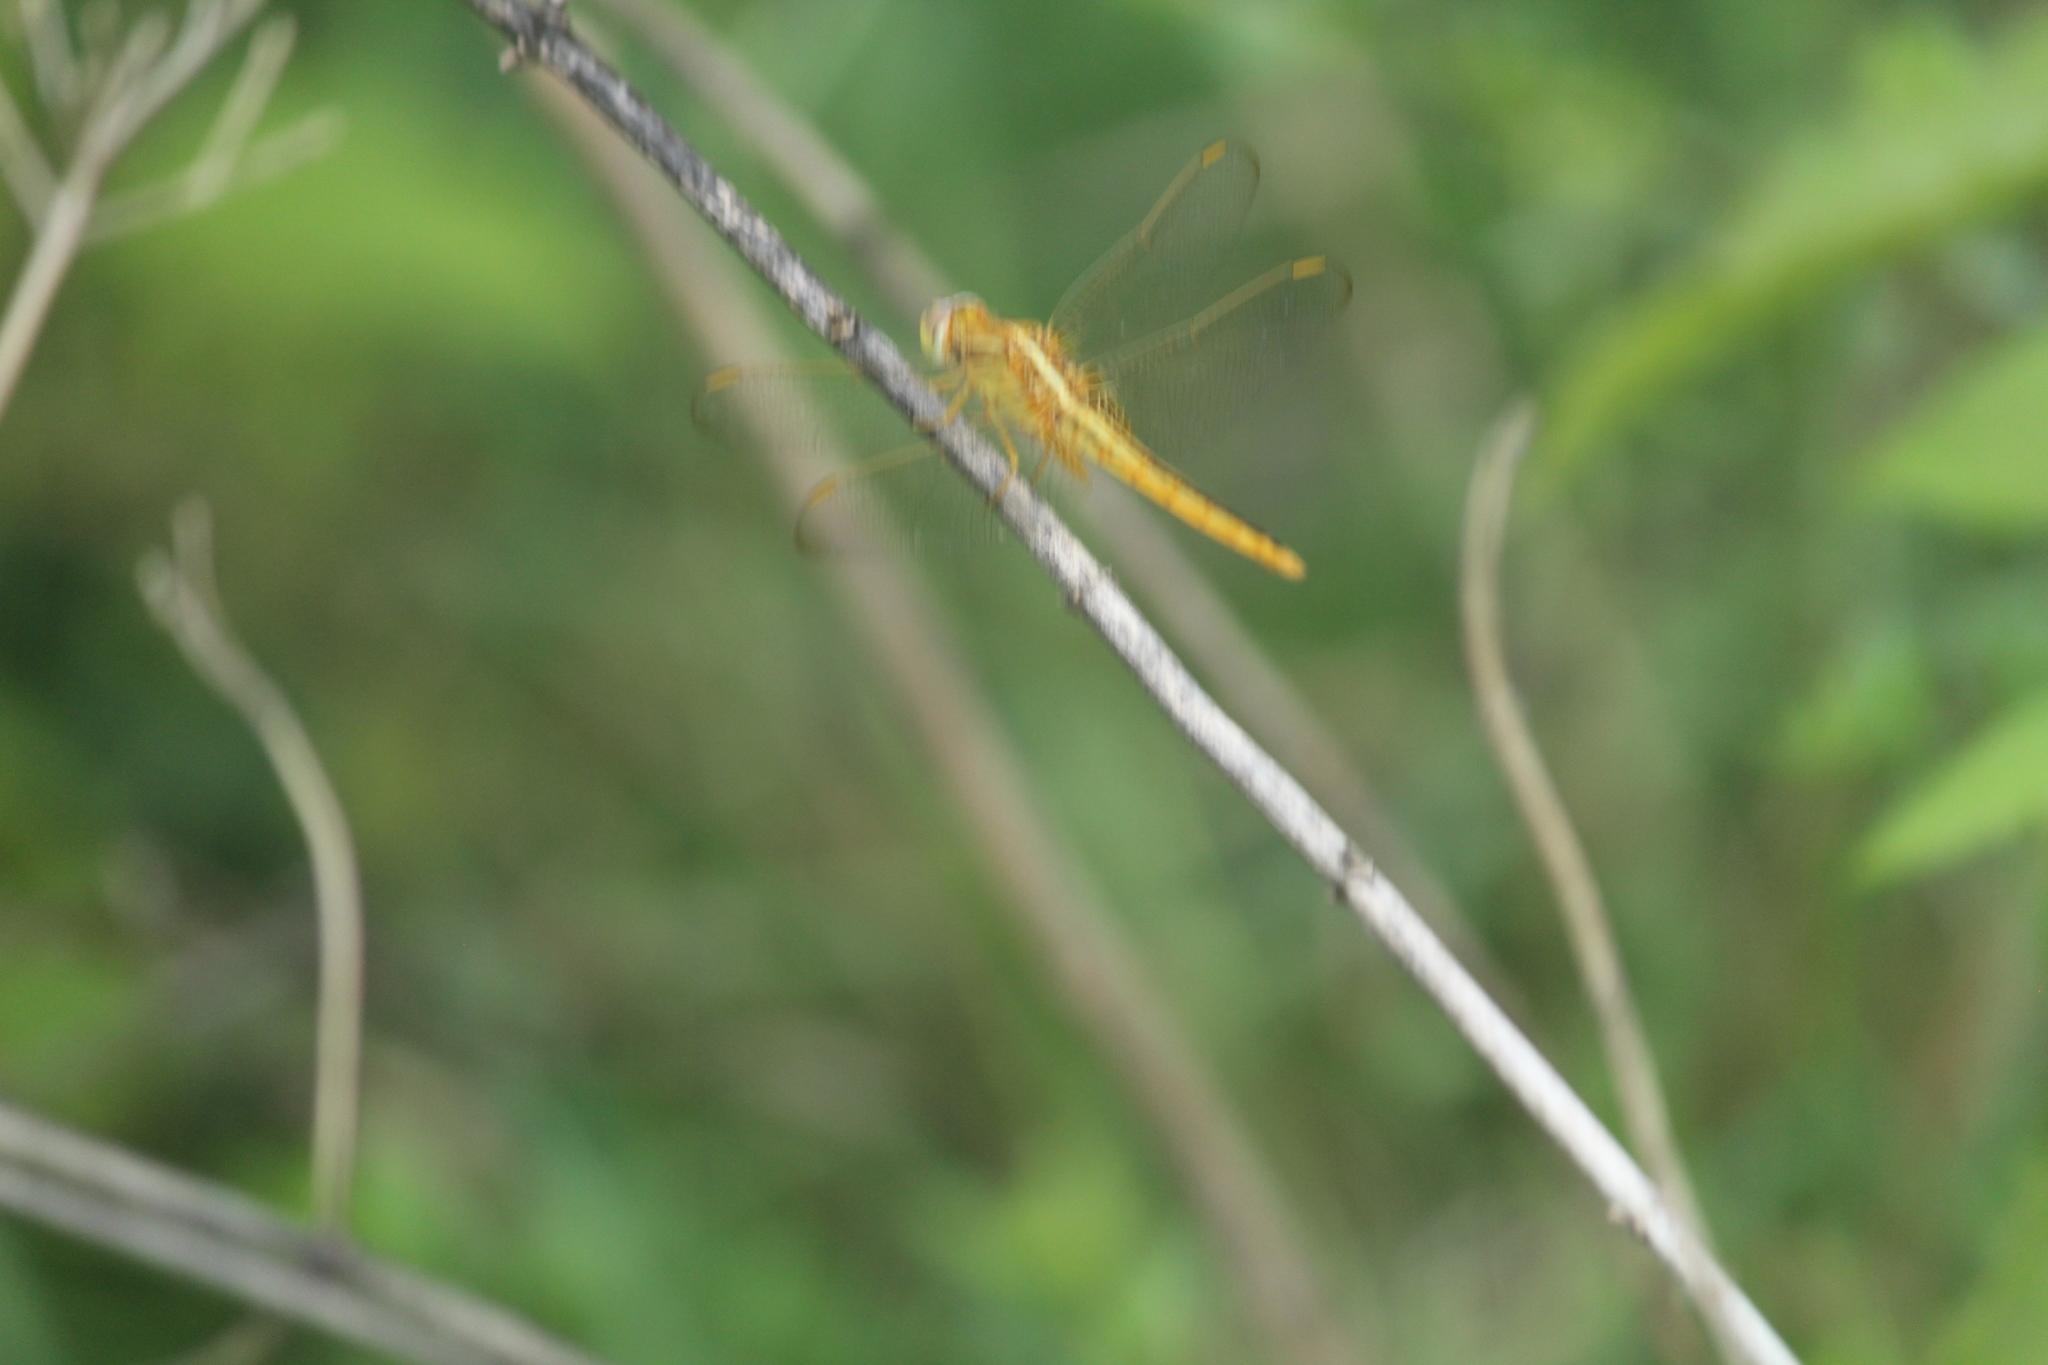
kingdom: Animalia
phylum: Arthropoda
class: Insecta
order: Odonata
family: Libellulidae
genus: Crocothemis
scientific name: Crocothemis servilia
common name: Scarlet skimmer
